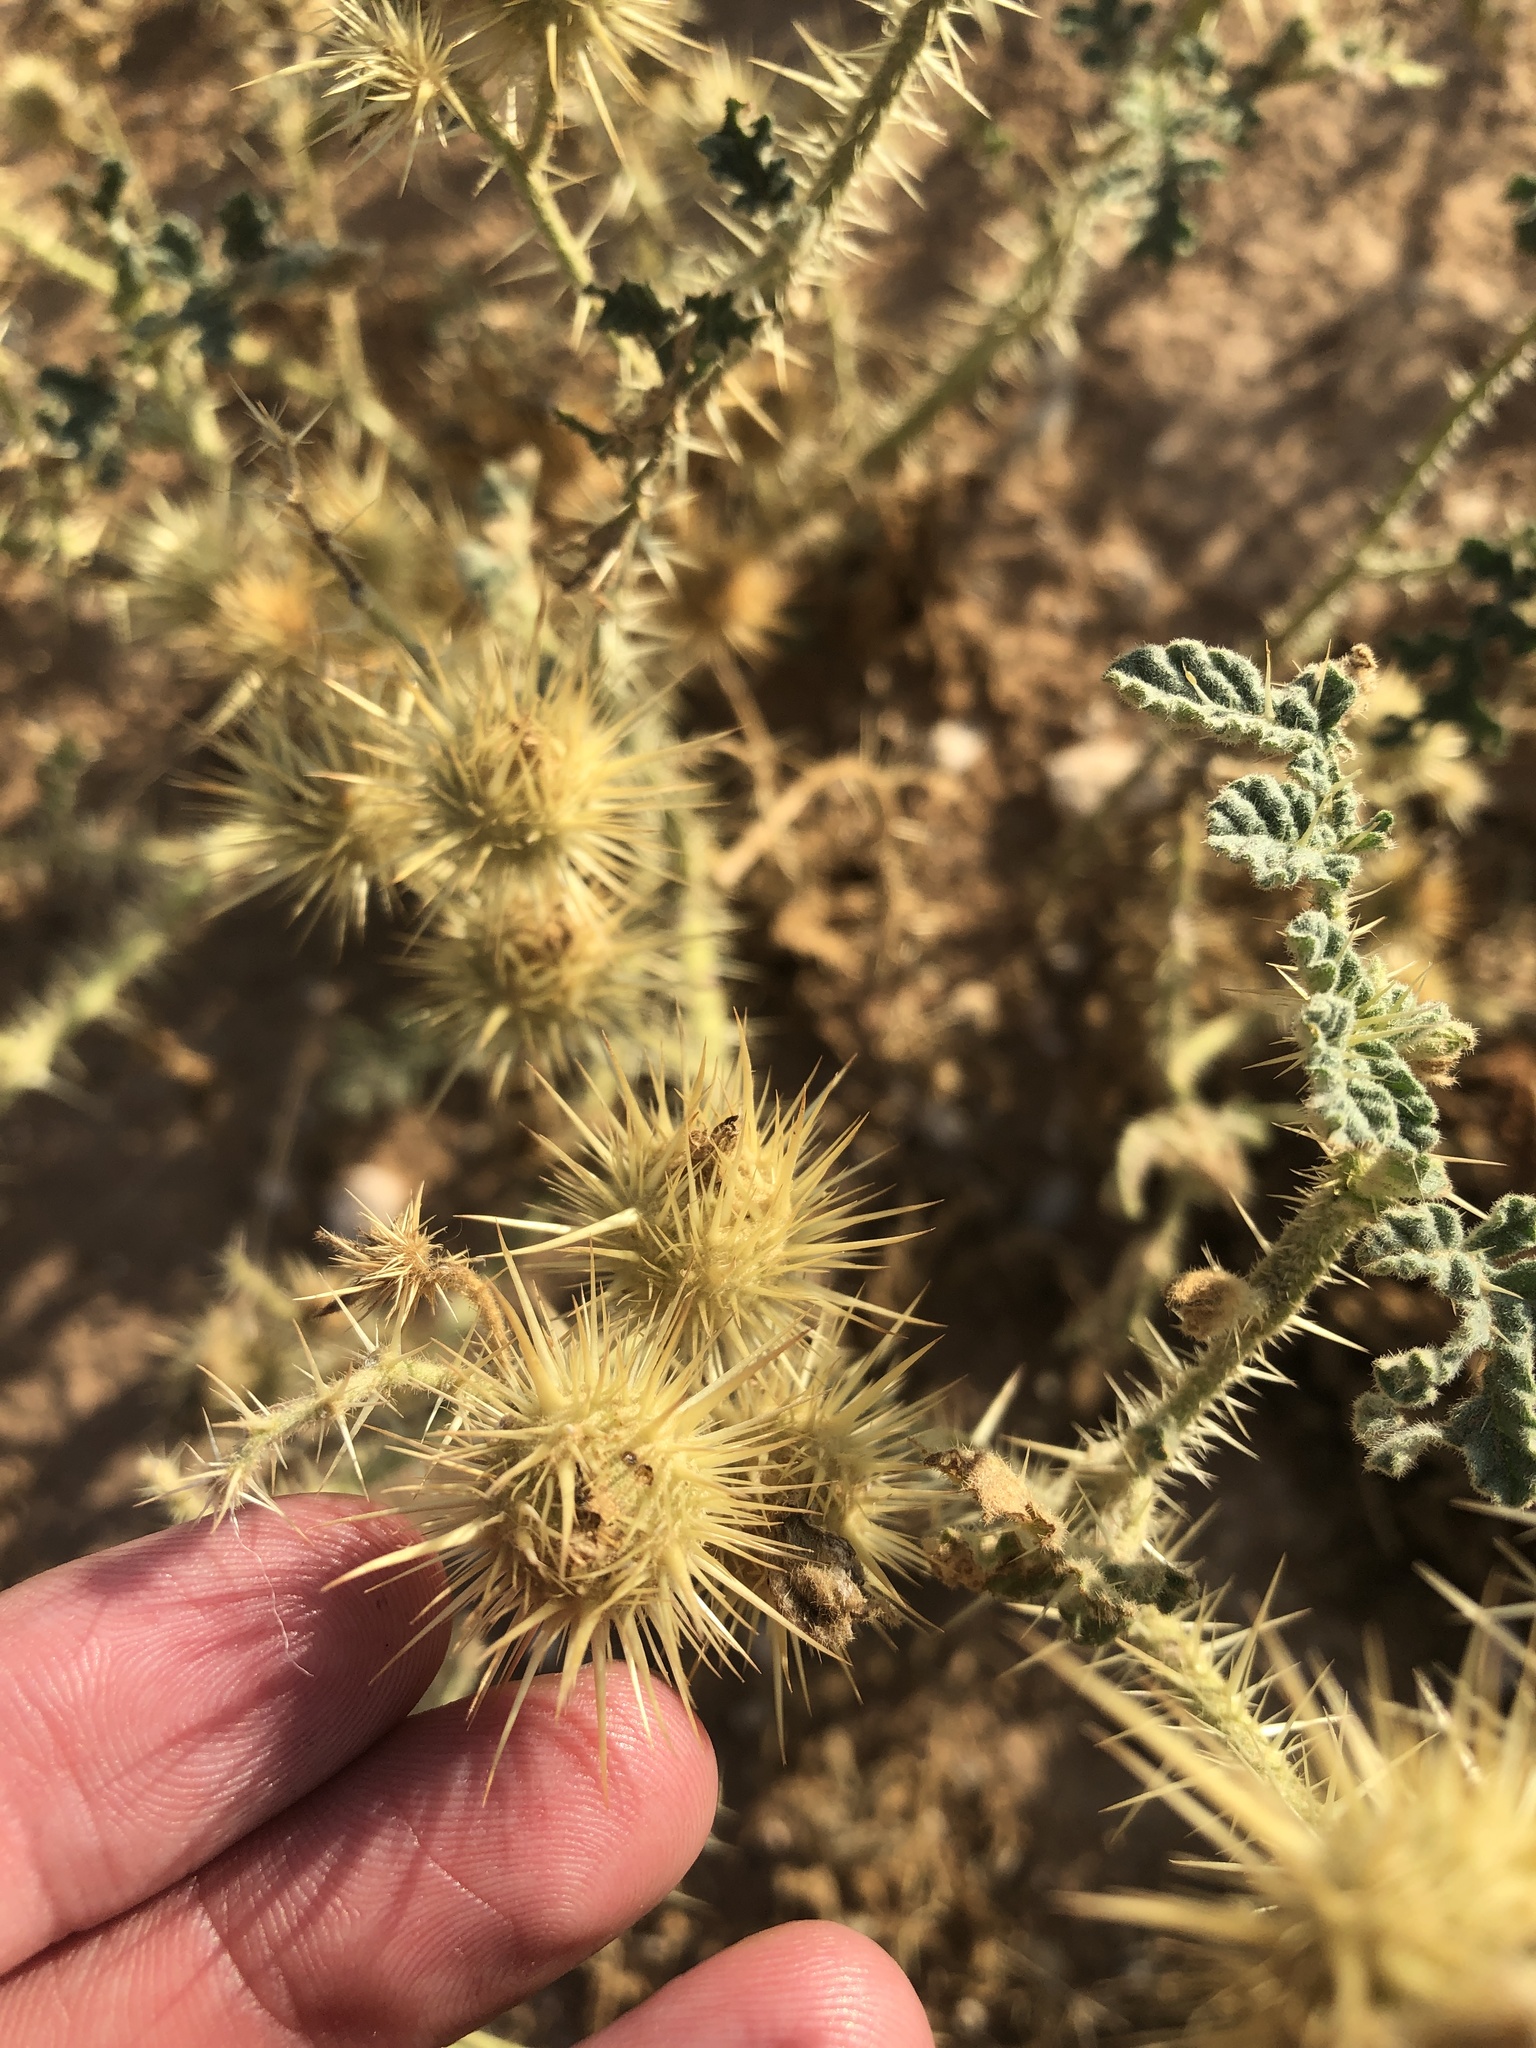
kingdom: Plantae
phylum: Tracheophyta
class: Magnoliopsida
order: Solanales
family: Solanaceae
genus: Solanum
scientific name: Solanum angustifolium
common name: Buffalobur nightshade
